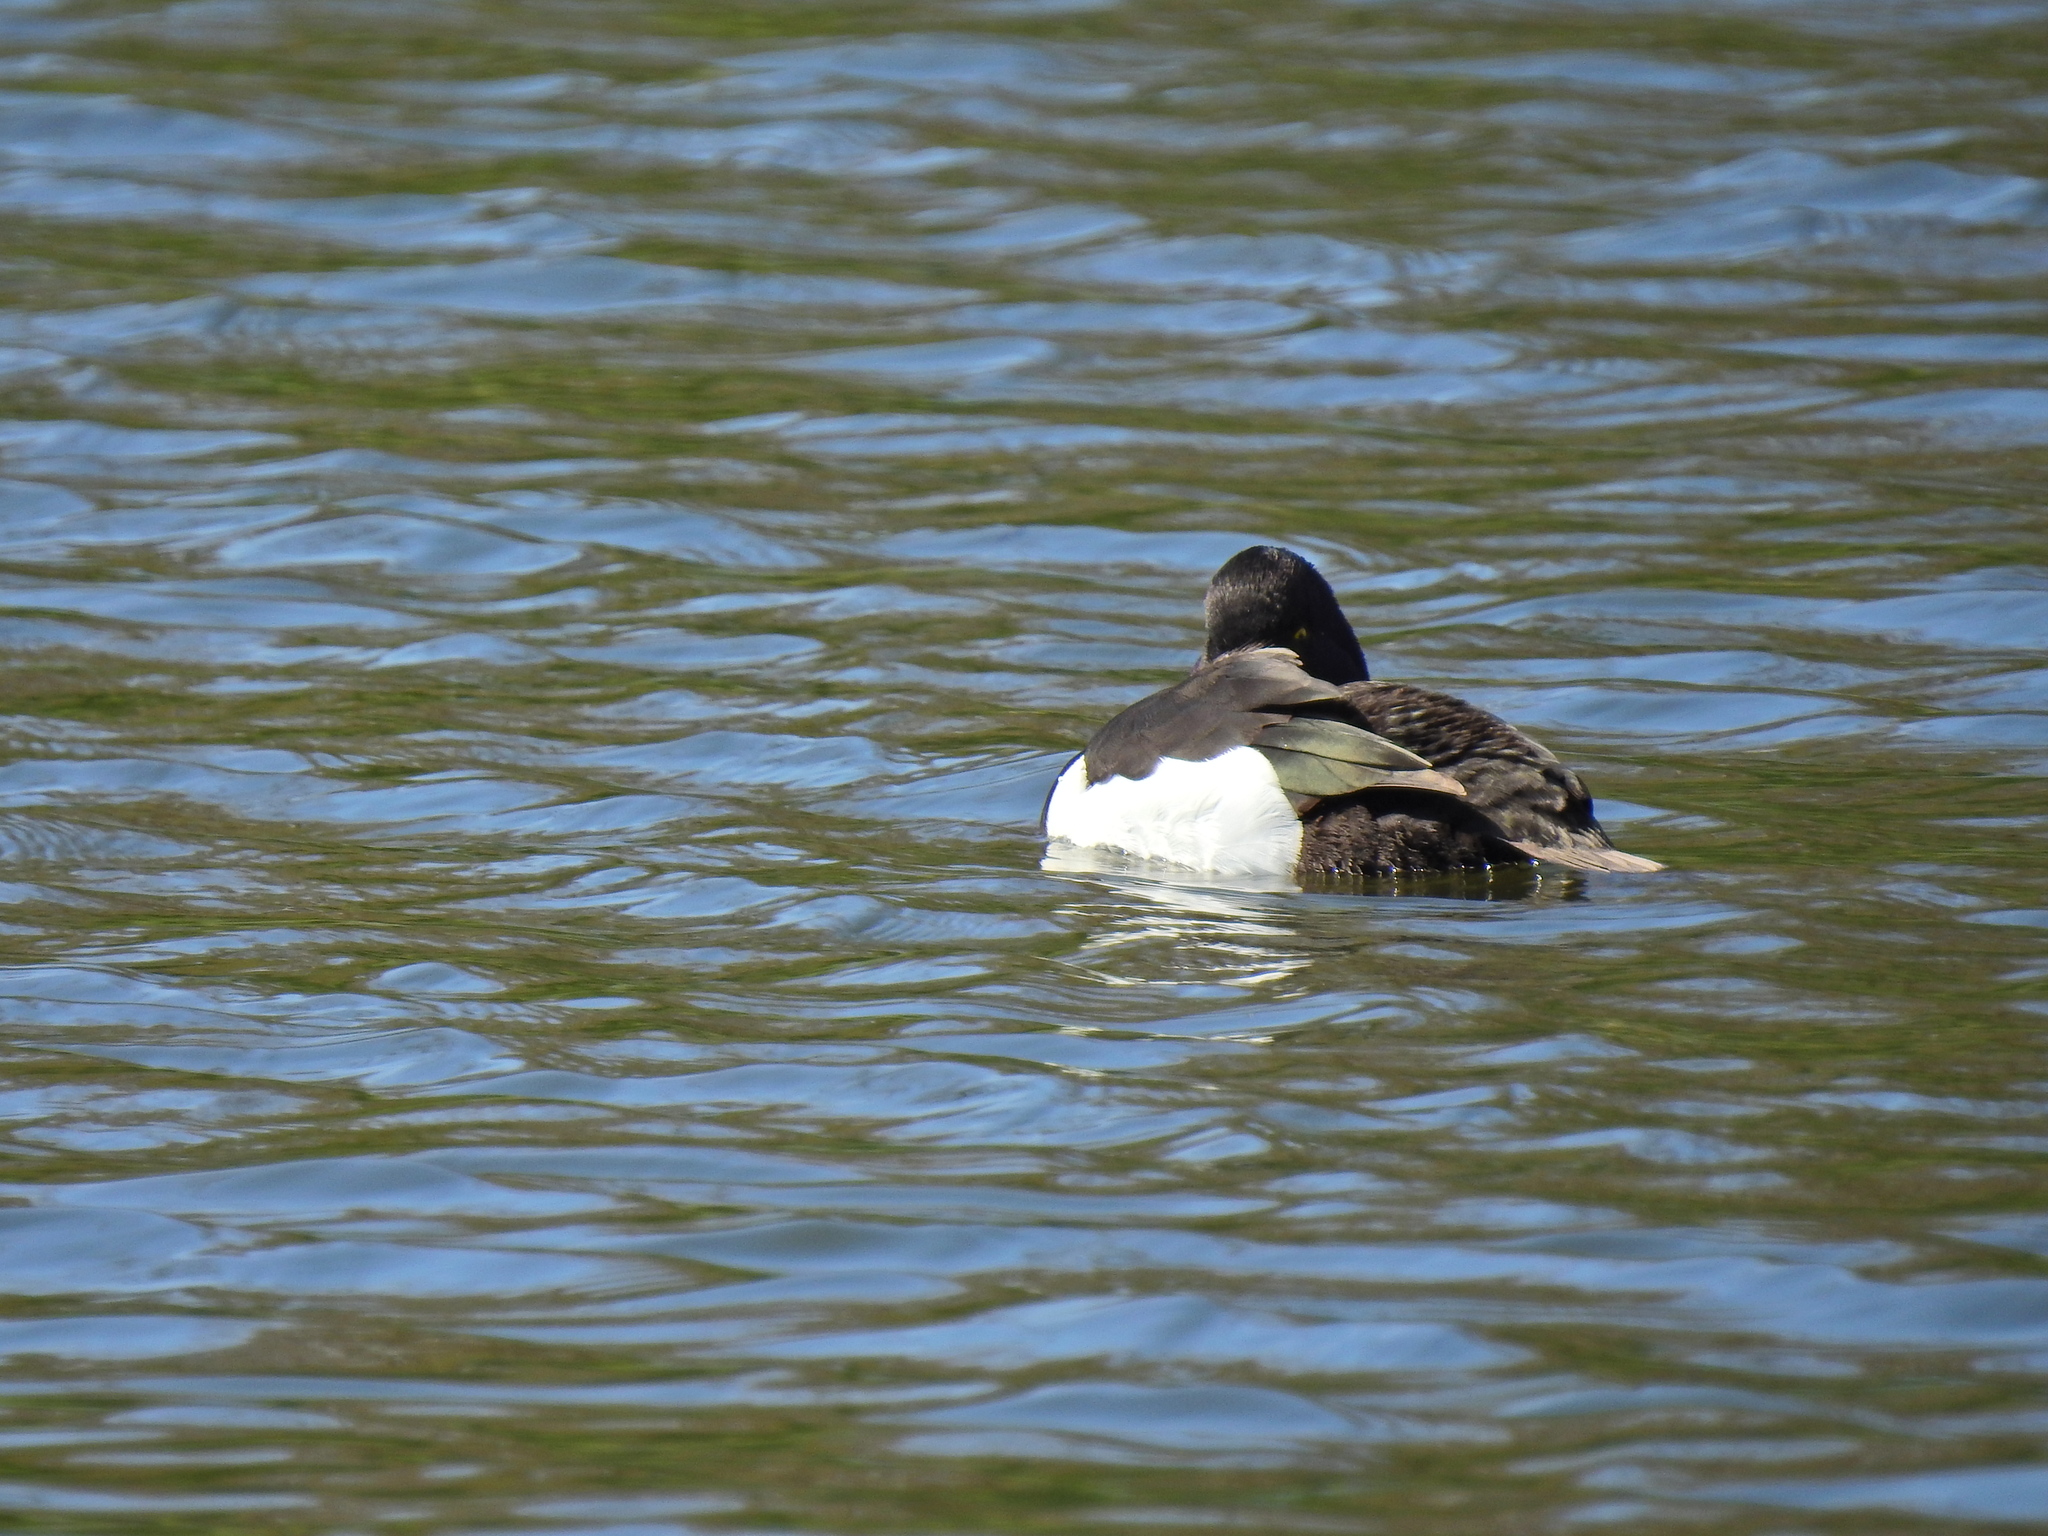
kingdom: Animalia
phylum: Chordata
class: Aves
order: Anseriformes
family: Anatidae
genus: Aythya
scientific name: Aythya fuligula
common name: Tufted duck
